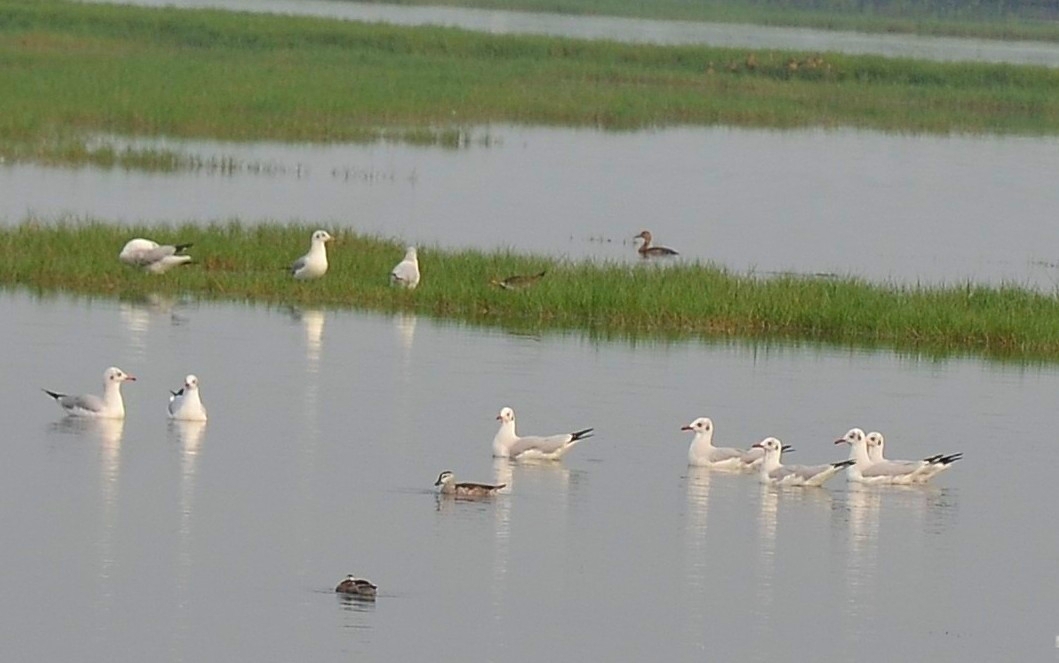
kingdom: Animalia
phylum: Chordata
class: Aves
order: Charadriiformes
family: Laridae
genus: Chroicocephalus
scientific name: Chroicocephalus brunnicephalus
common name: Brown-headed gull
